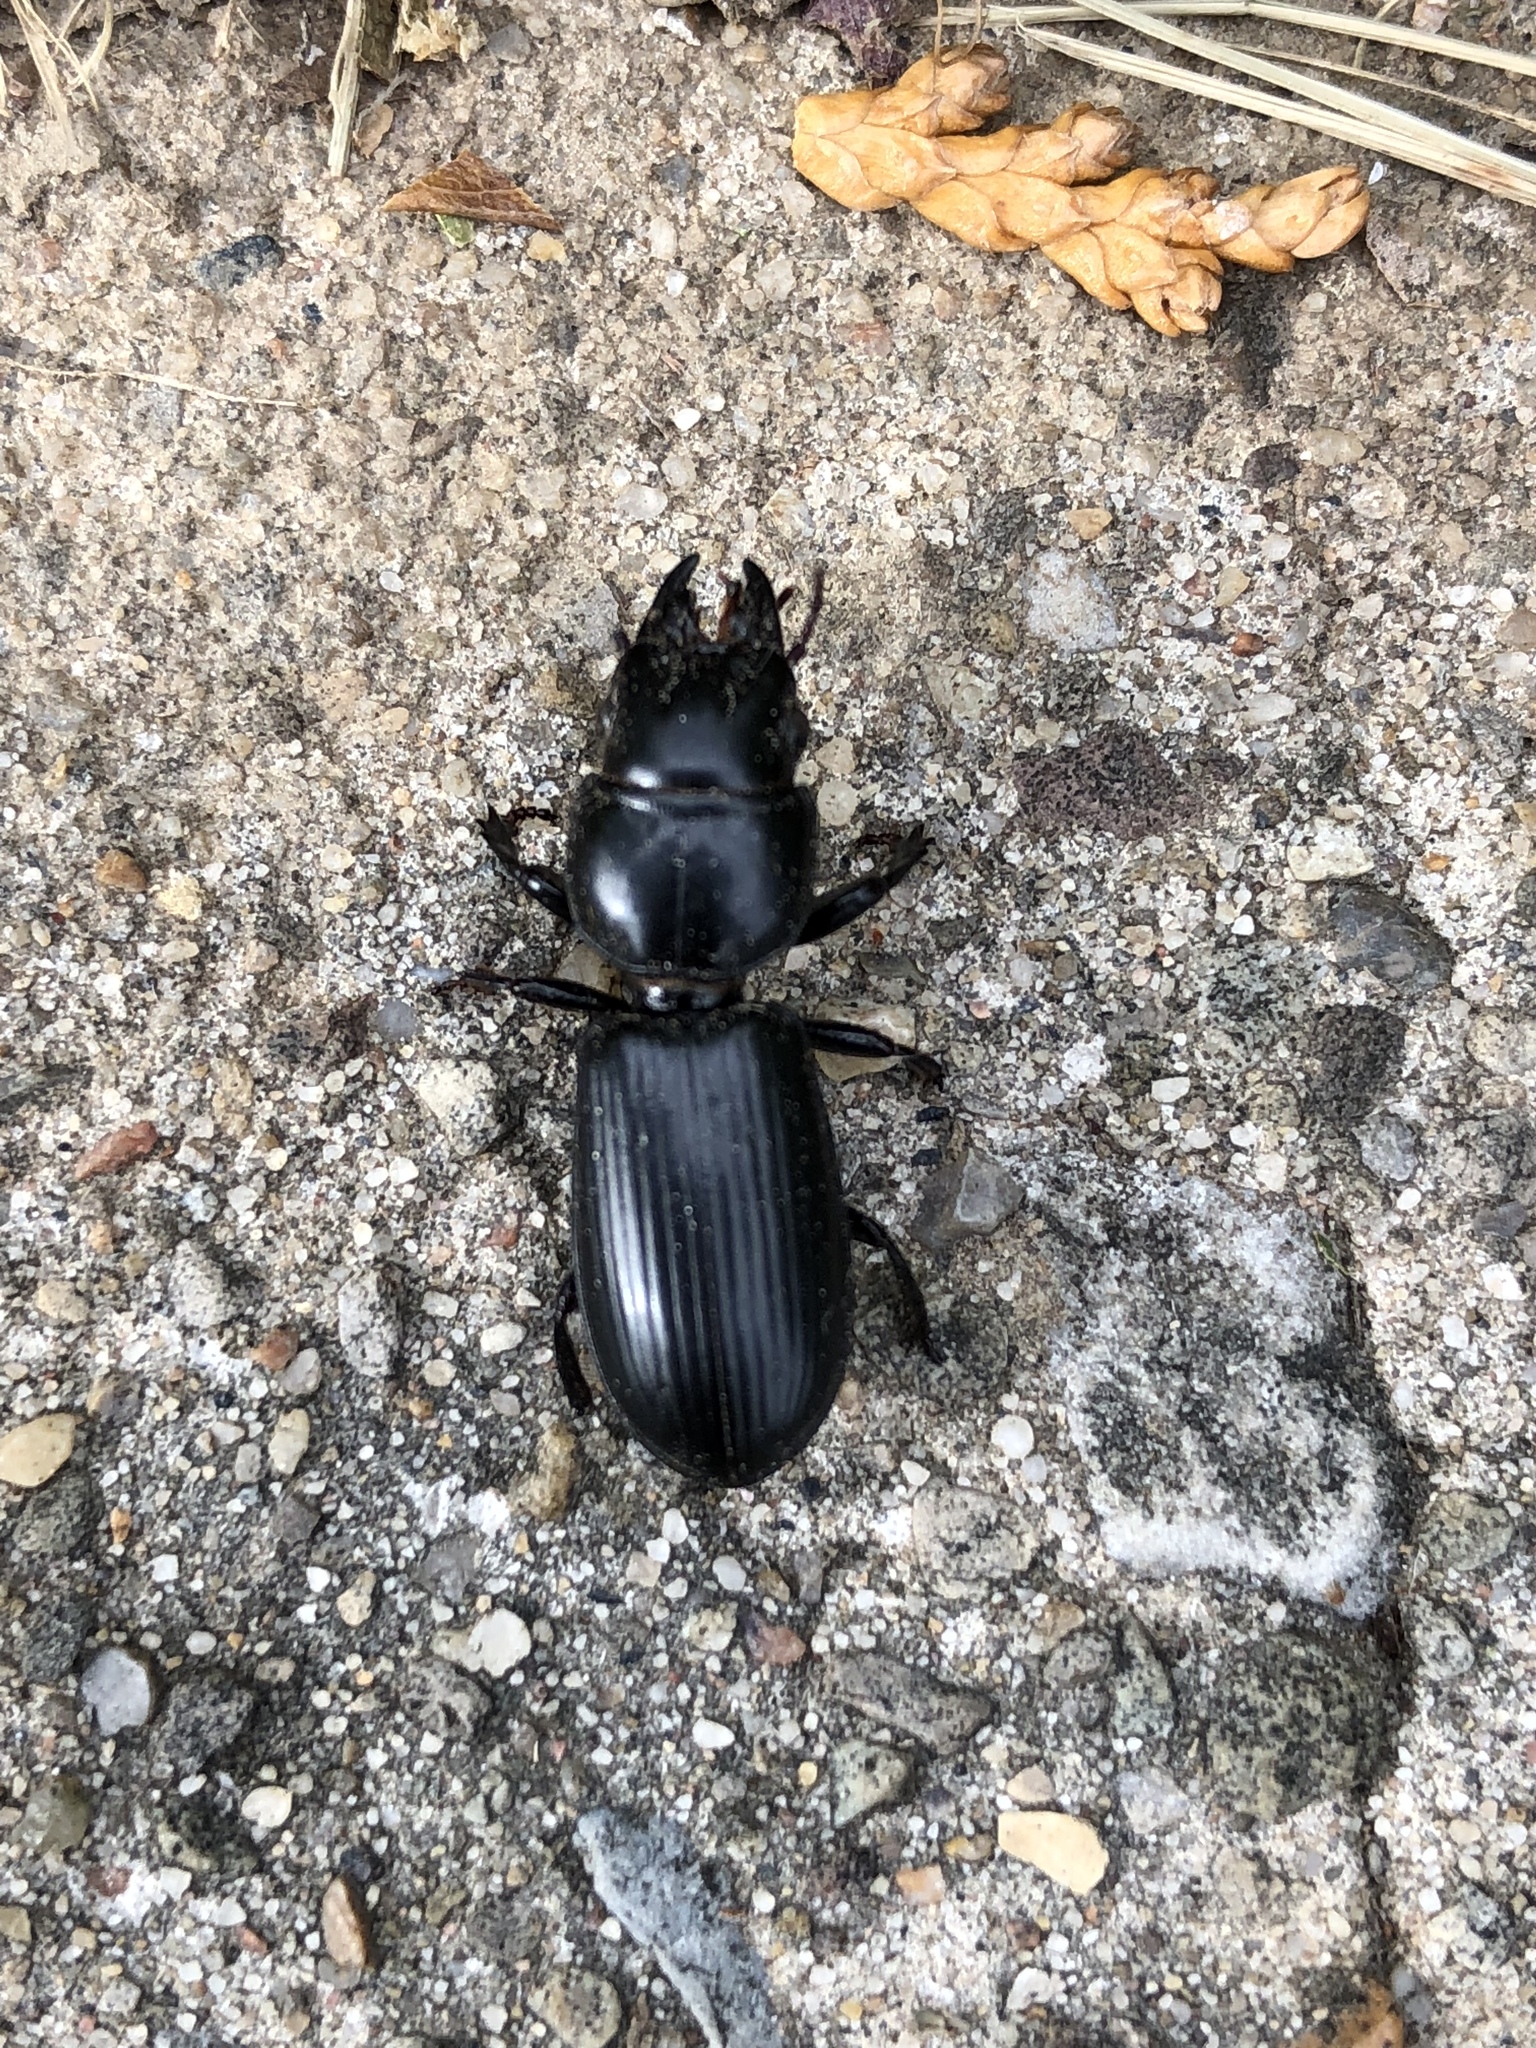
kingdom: Animalia
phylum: Arthropoda
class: Insecta
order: Coleoptera
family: Carabidae
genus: Scarites
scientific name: Scarites subterraneus
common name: Big-headed ground beetle
